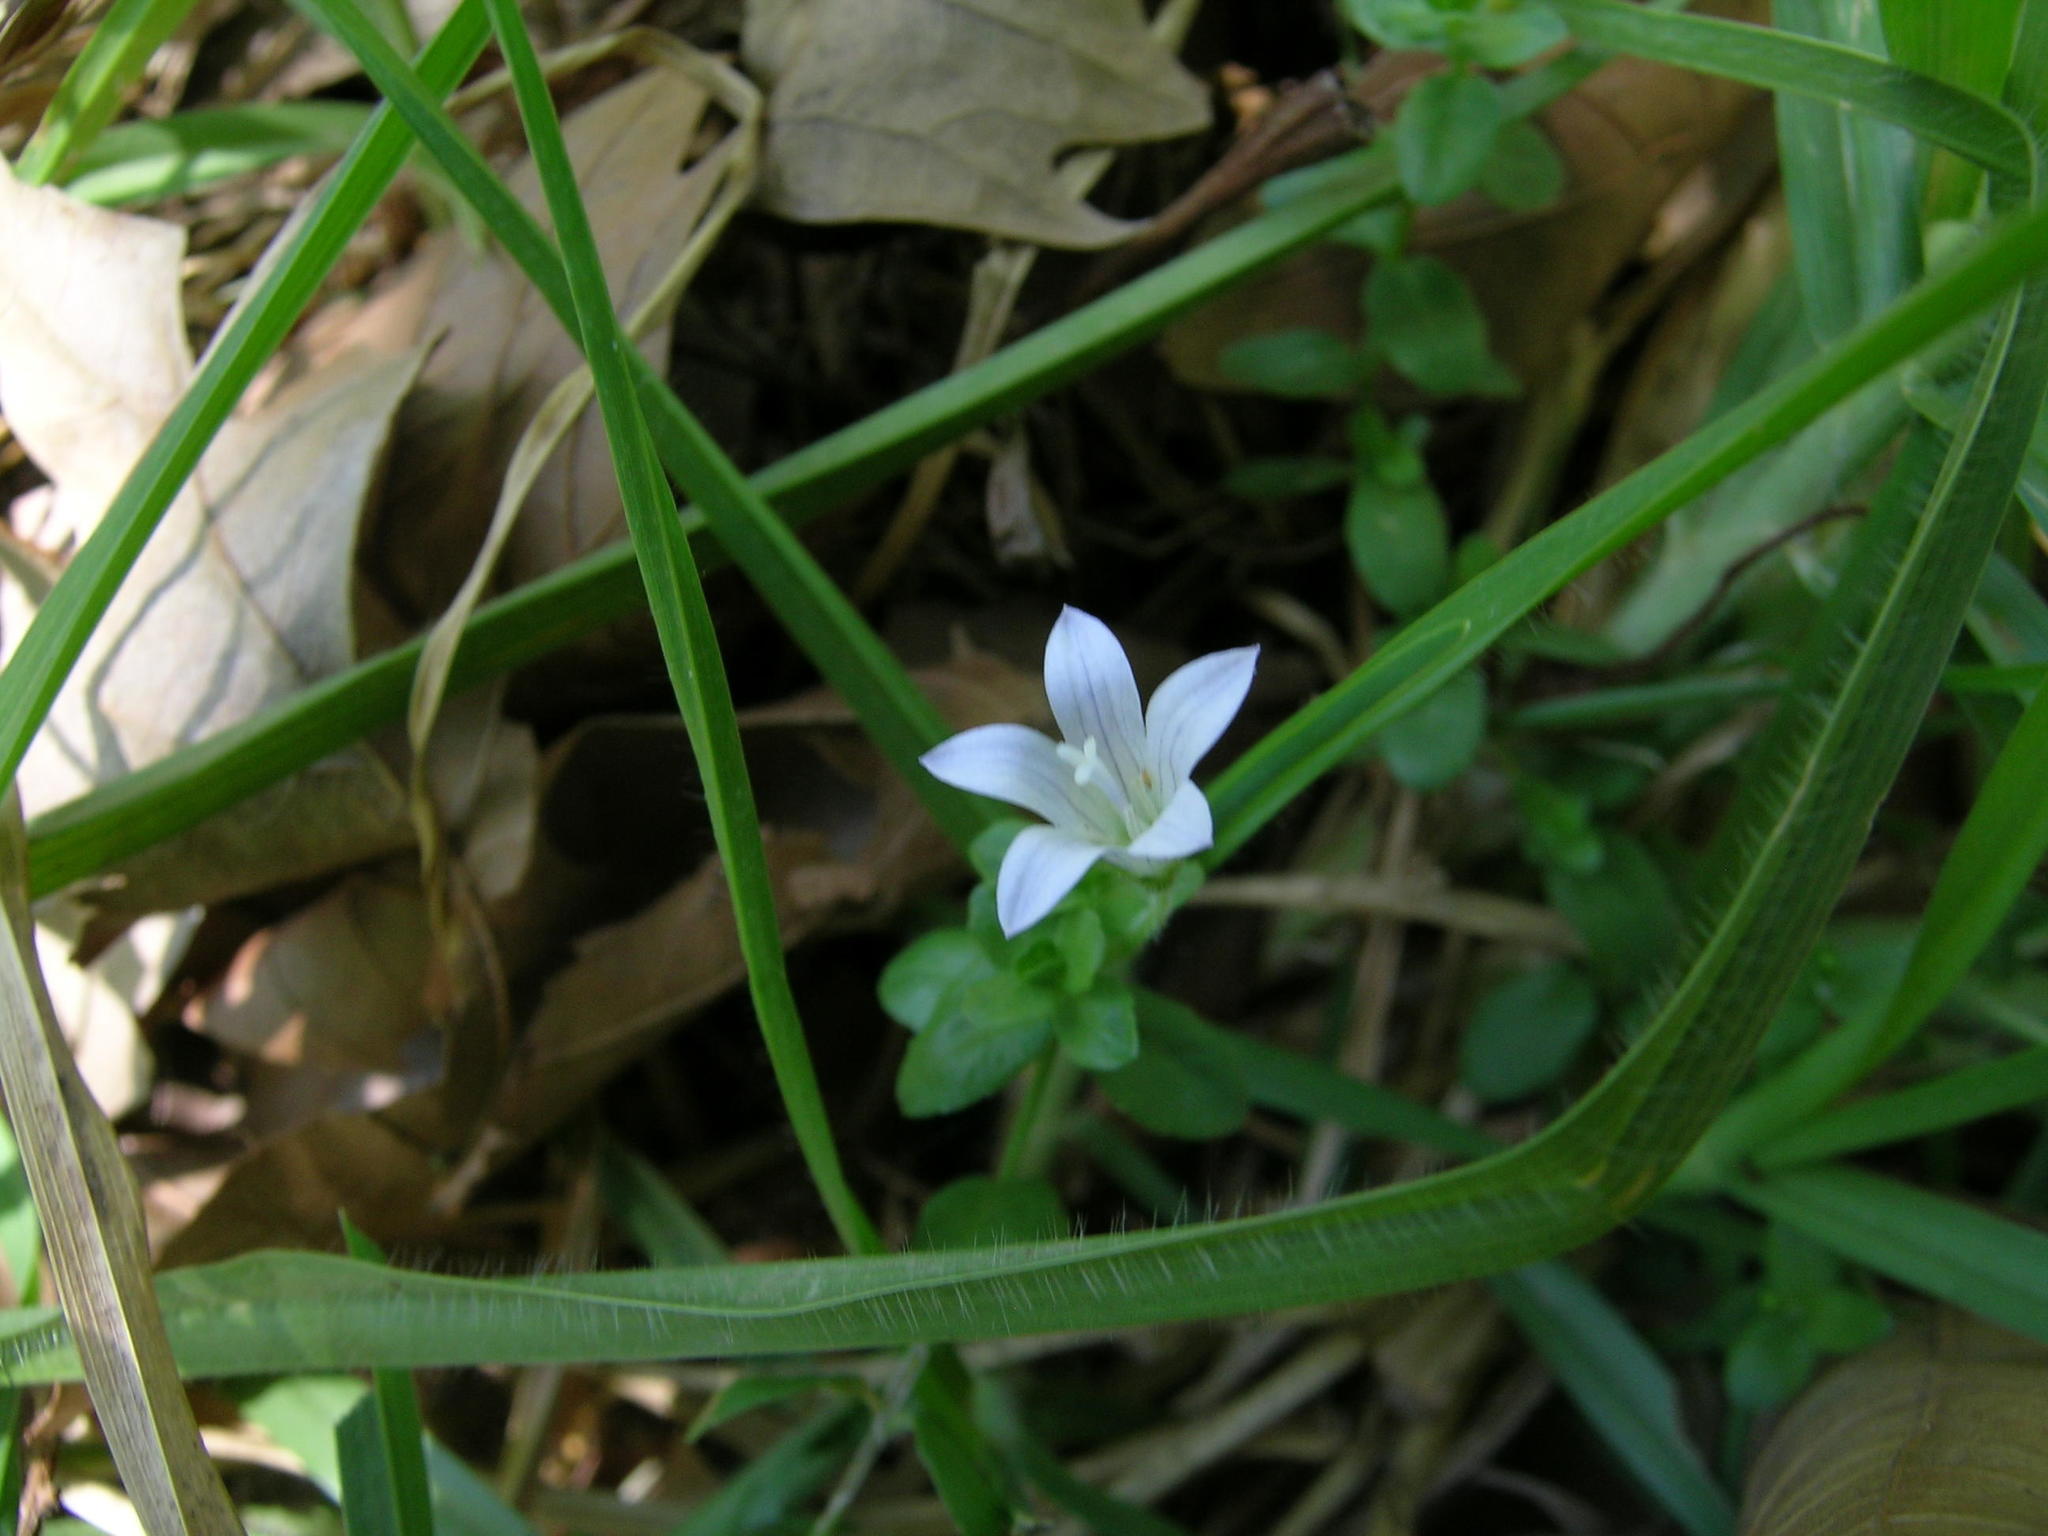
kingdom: Plantae
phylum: Tracheophyta
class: Magnoliopsida
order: Asterales
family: Campanulaceae
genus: Wahlenbergia
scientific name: Wahlenbergia procumbens
